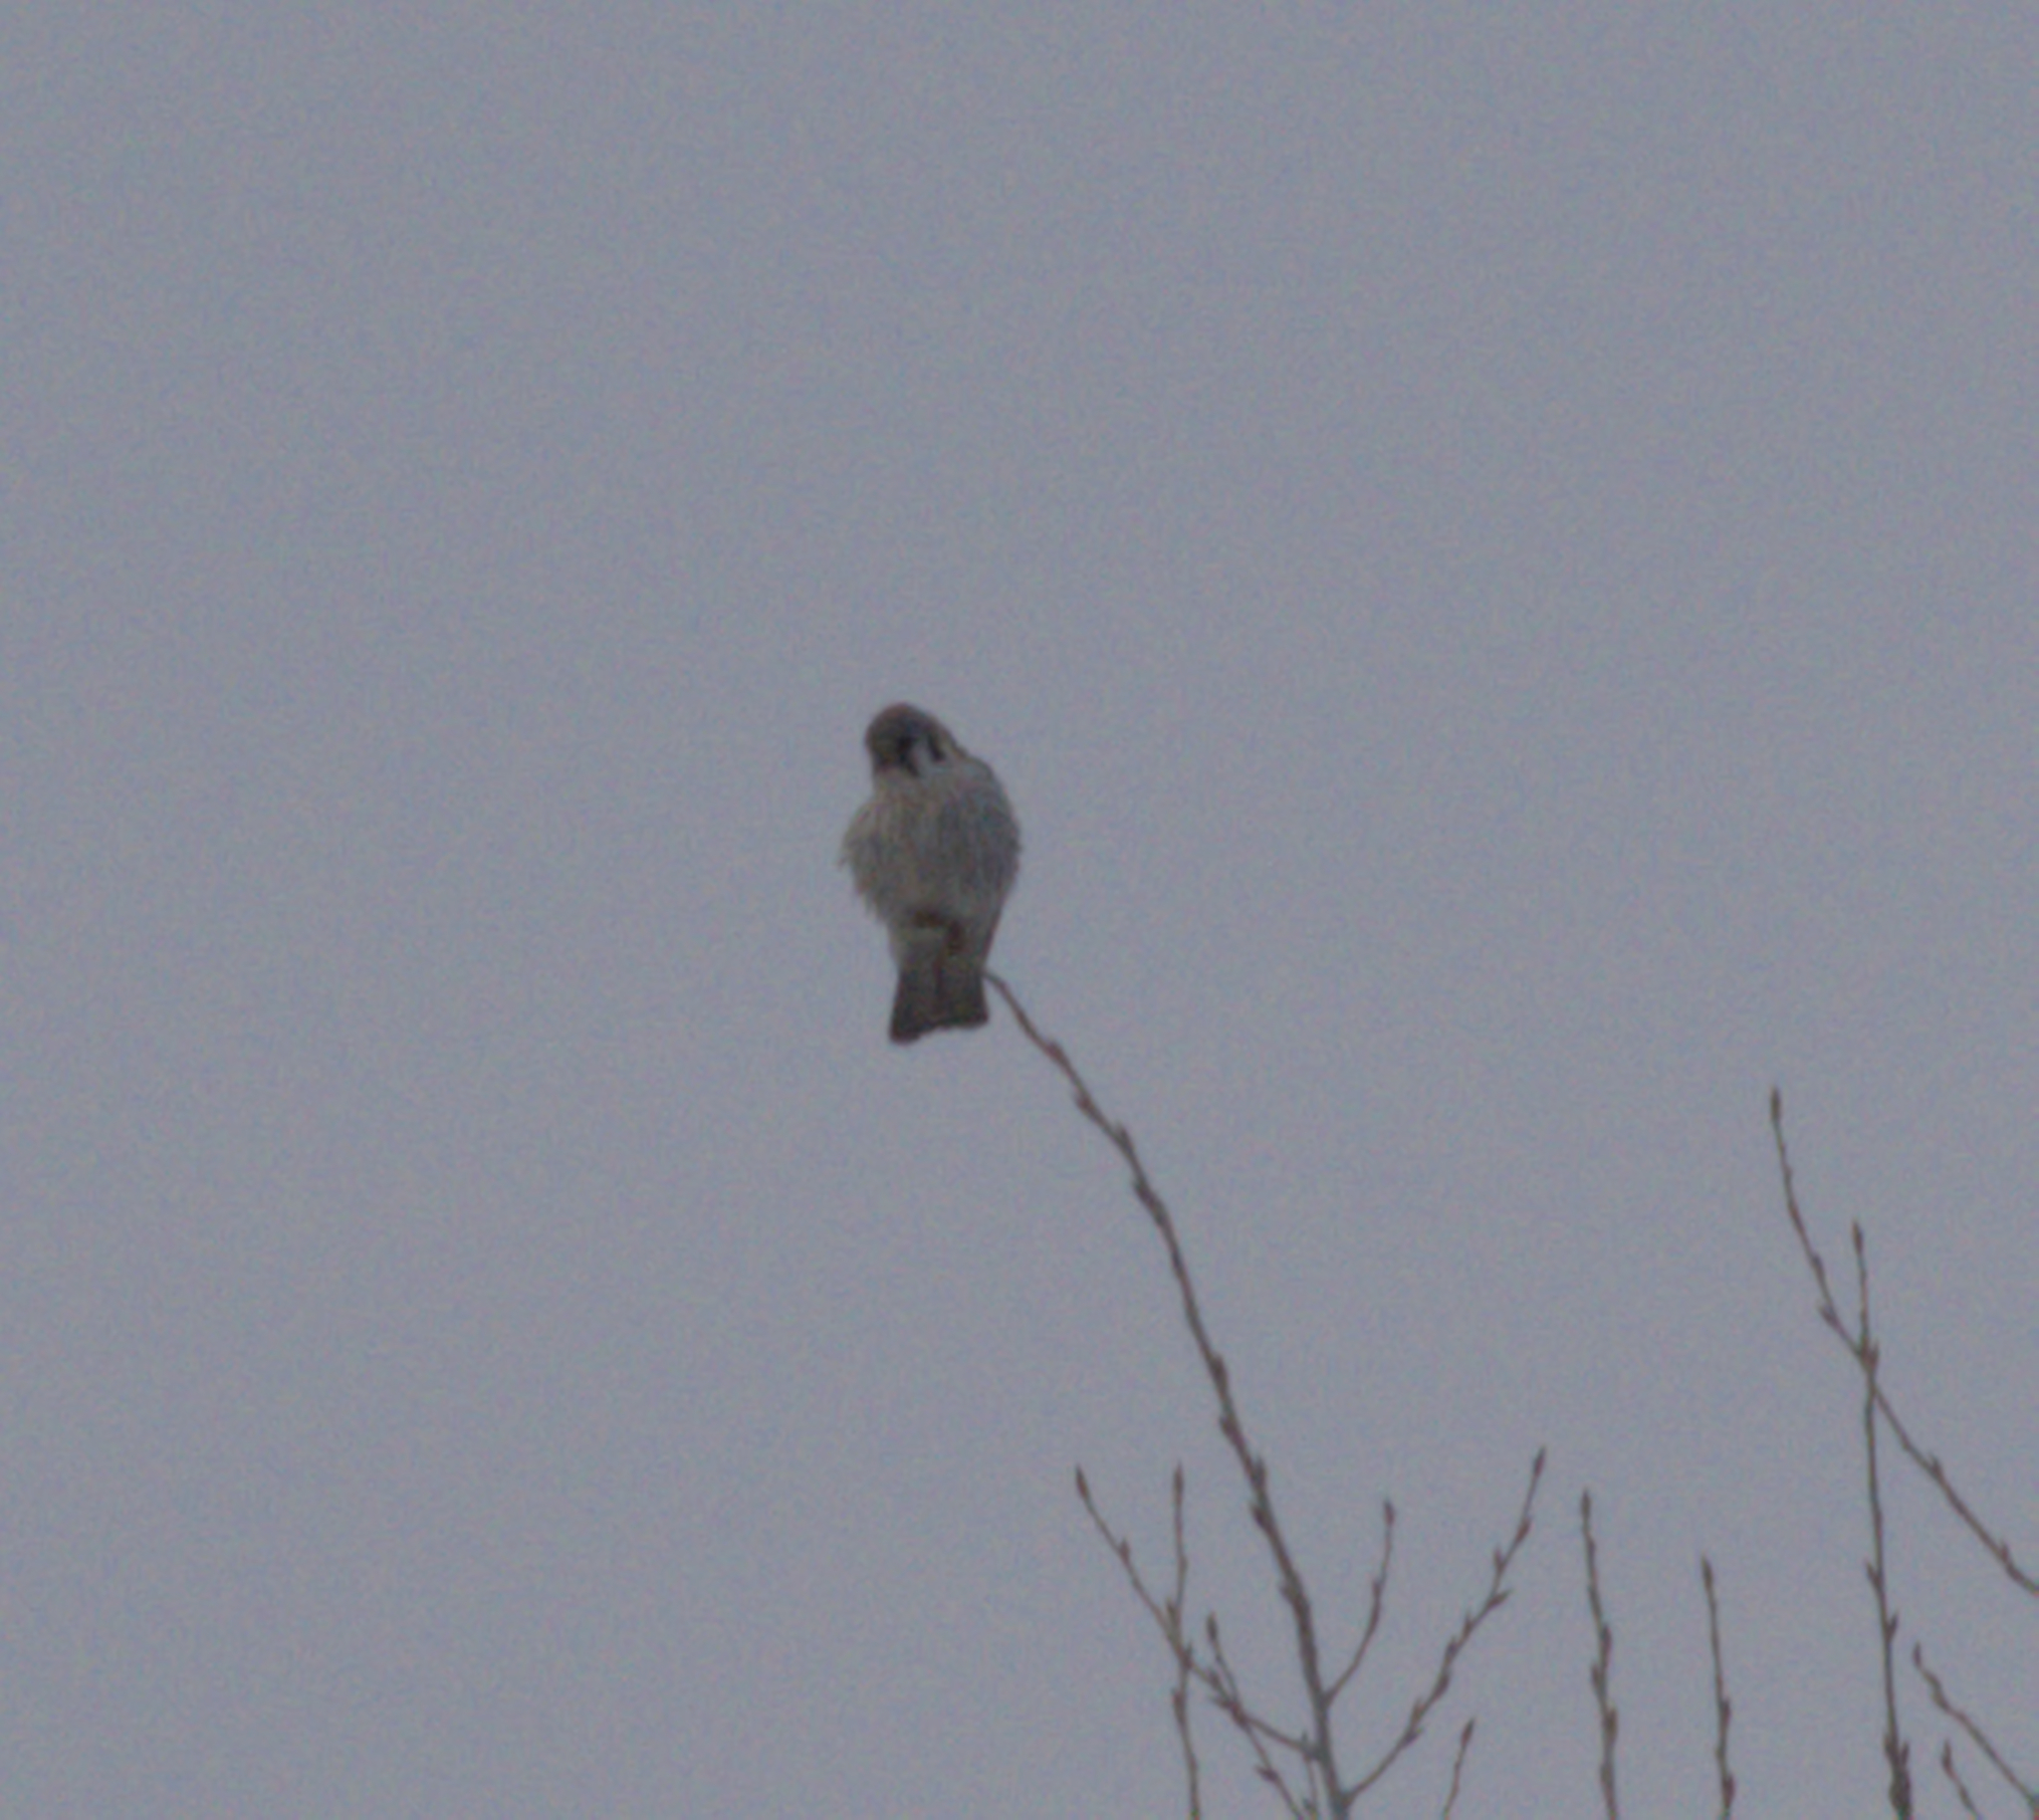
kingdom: Animalia
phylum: Chordata
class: Aves
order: Falconiformes
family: Falconidae
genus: Falco
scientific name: Falco sparverius
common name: American kestrel
